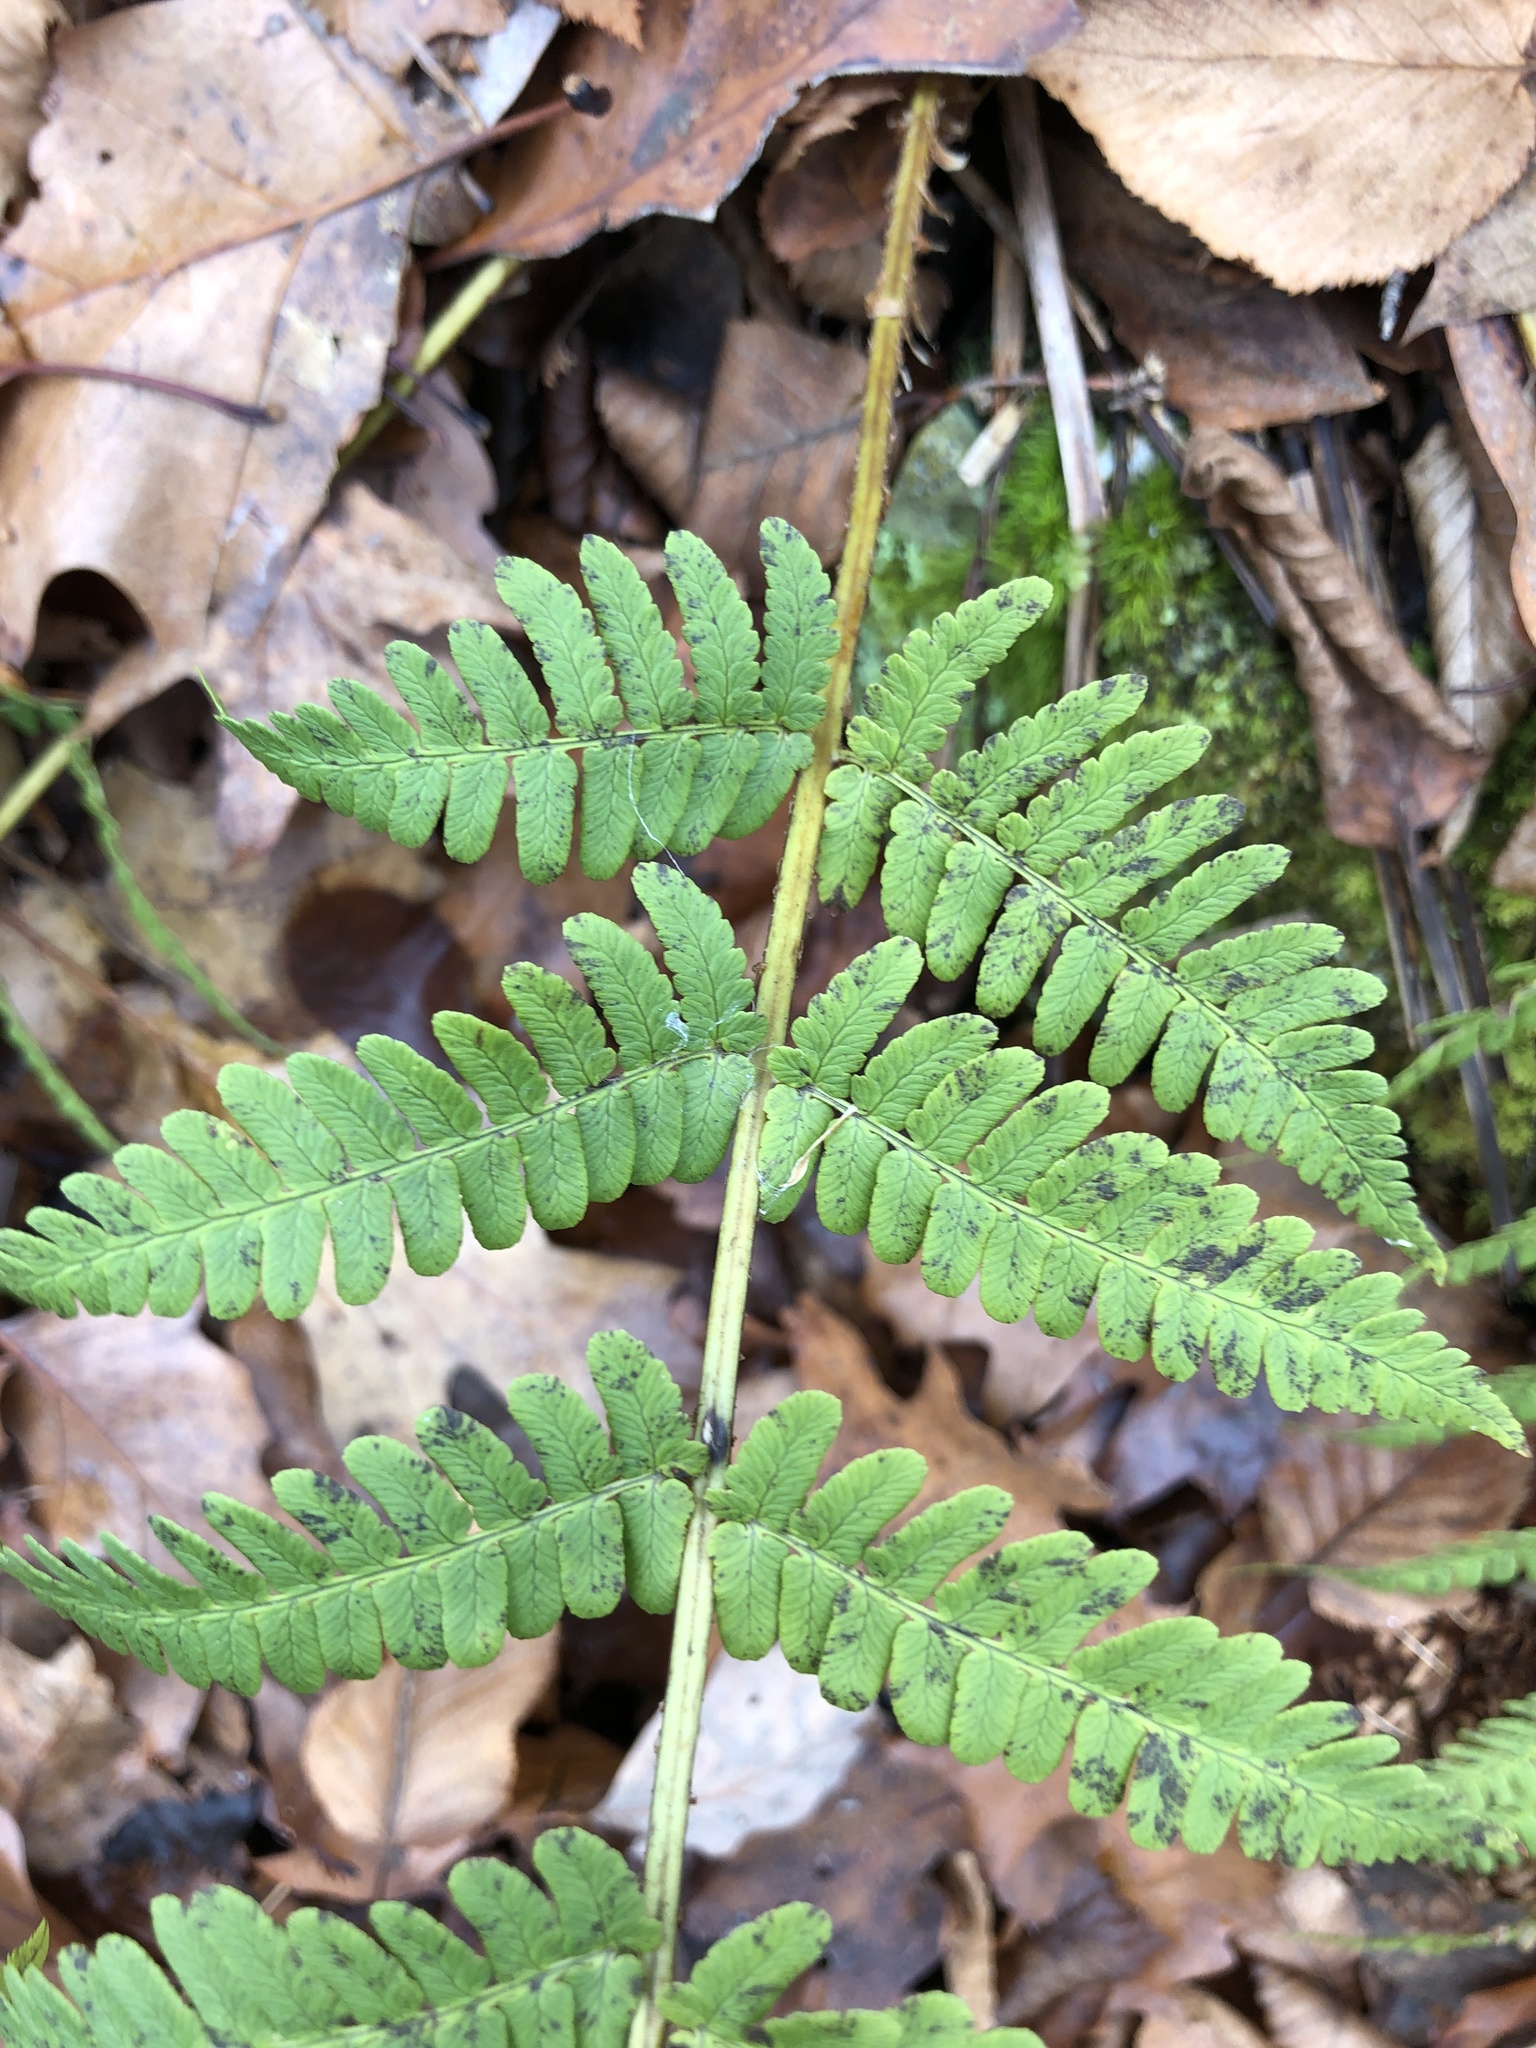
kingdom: Plantae
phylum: Tracheophyta
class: Polypodiopsida
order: Polypodiales
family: Dryopteridaceae
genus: Dryopteris
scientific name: Dryopteris marginalis
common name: Marginal wood fern
